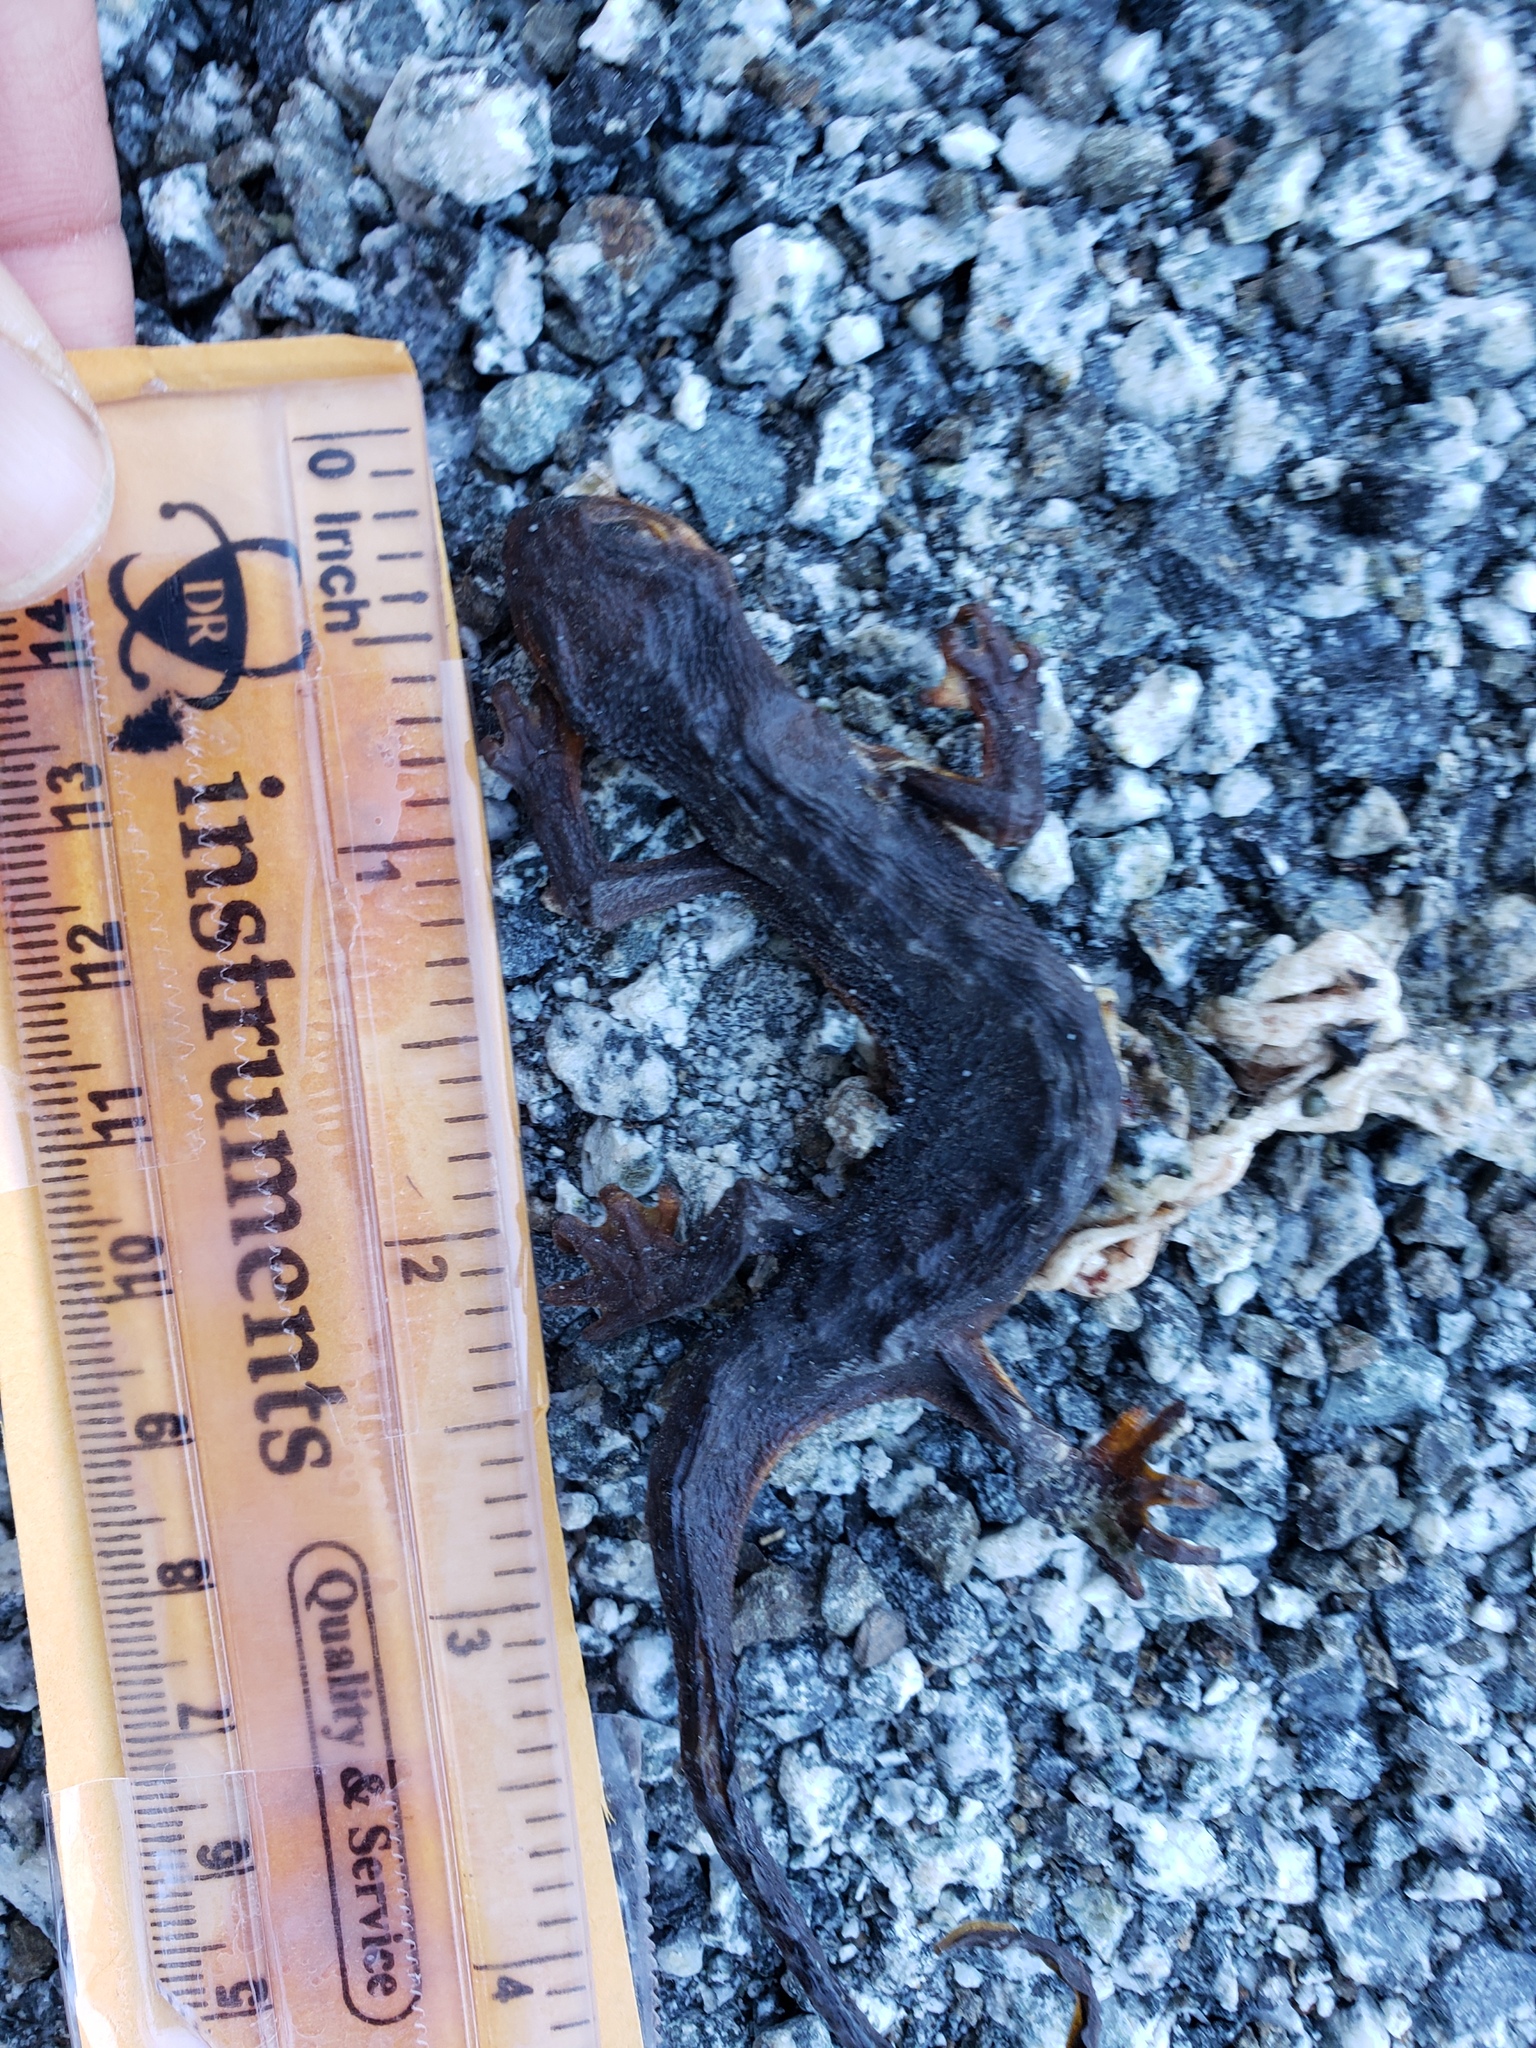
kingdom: Animalia
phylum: Chordata
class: Amphibia
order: Caudata
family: Salamandridae
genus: Taricha
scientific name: Taricha
